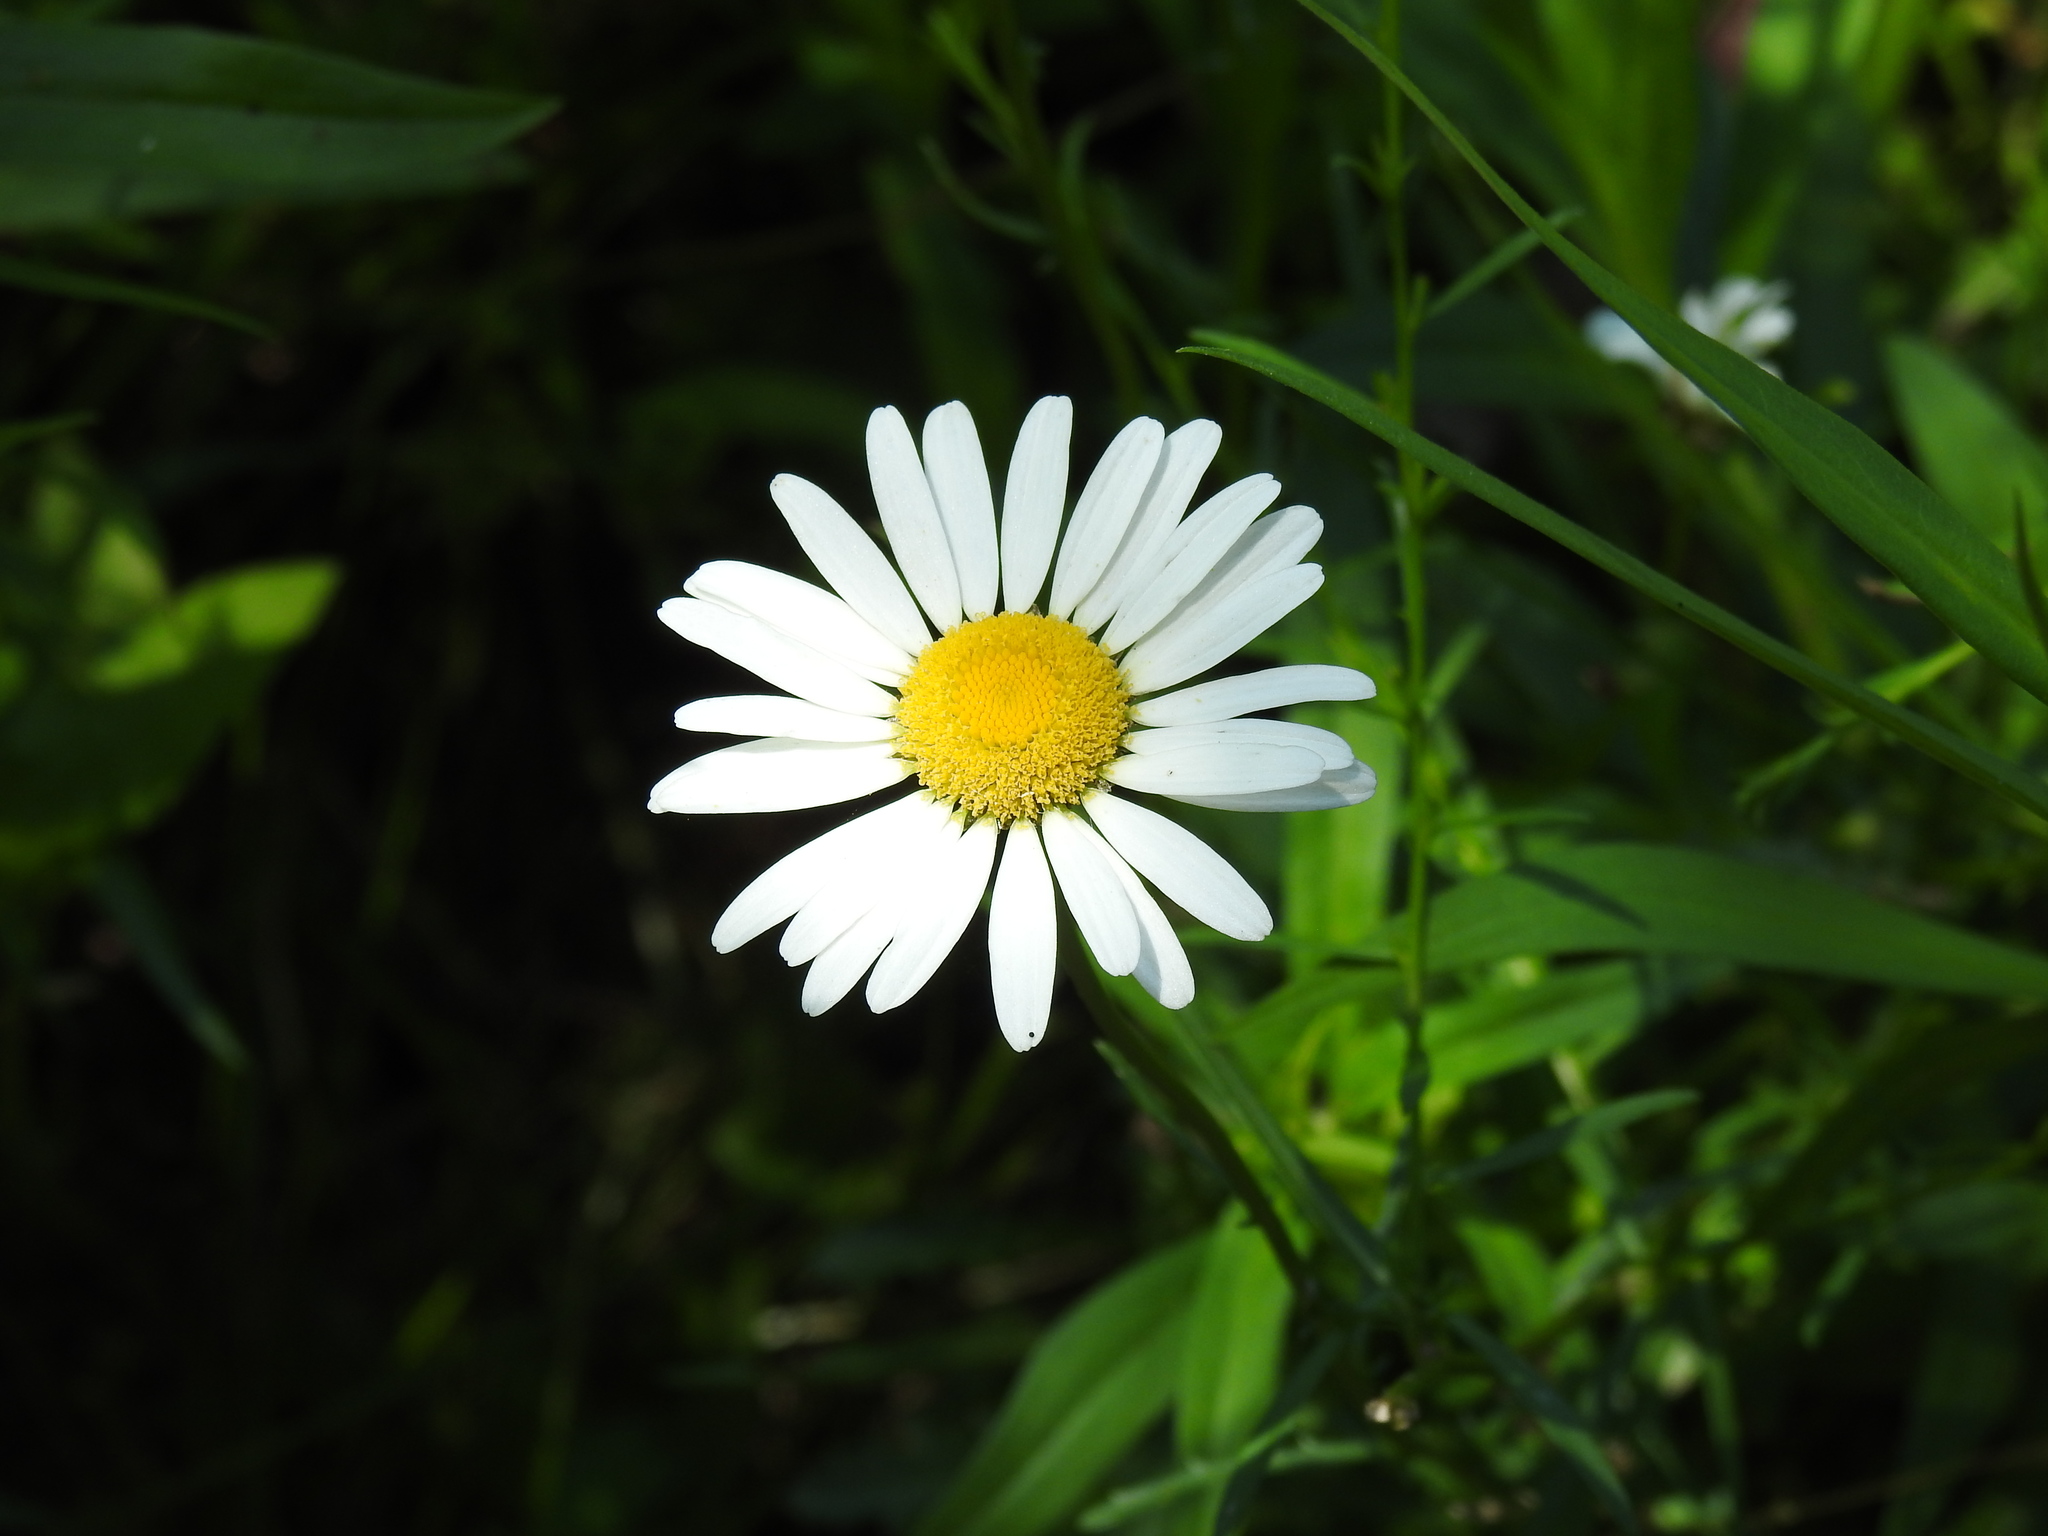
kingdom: Plantae
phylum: Tracheophyta
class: Magnoliopsida
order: Asterales
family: Asteraceae
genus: Leucanthemum
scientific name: Leucanthemum vulgare
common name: Oxeye daisy
